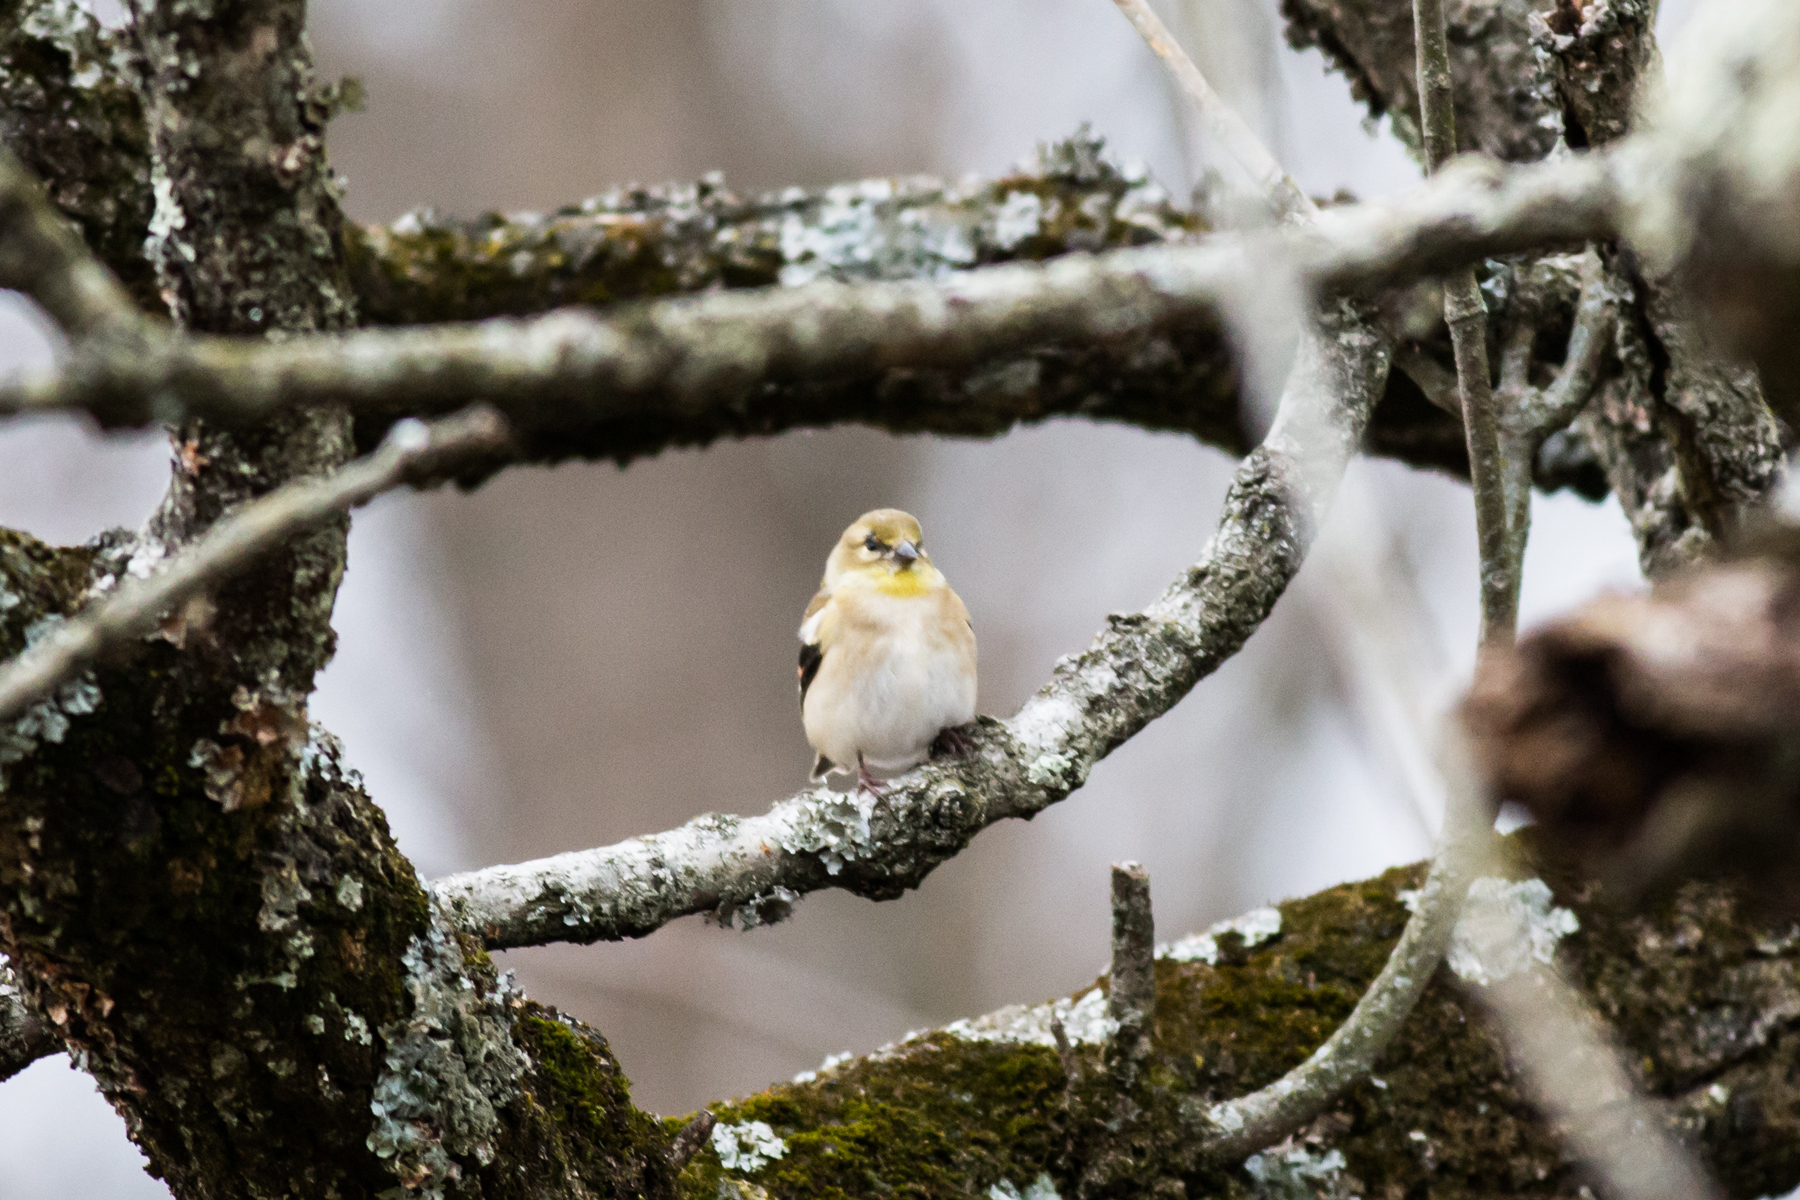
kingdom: Animalia
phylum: Chordata
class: Aves
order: Passeriformes
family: Fringillidae
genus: Spinus
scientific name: Spinus tristis
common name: American goldfinch
